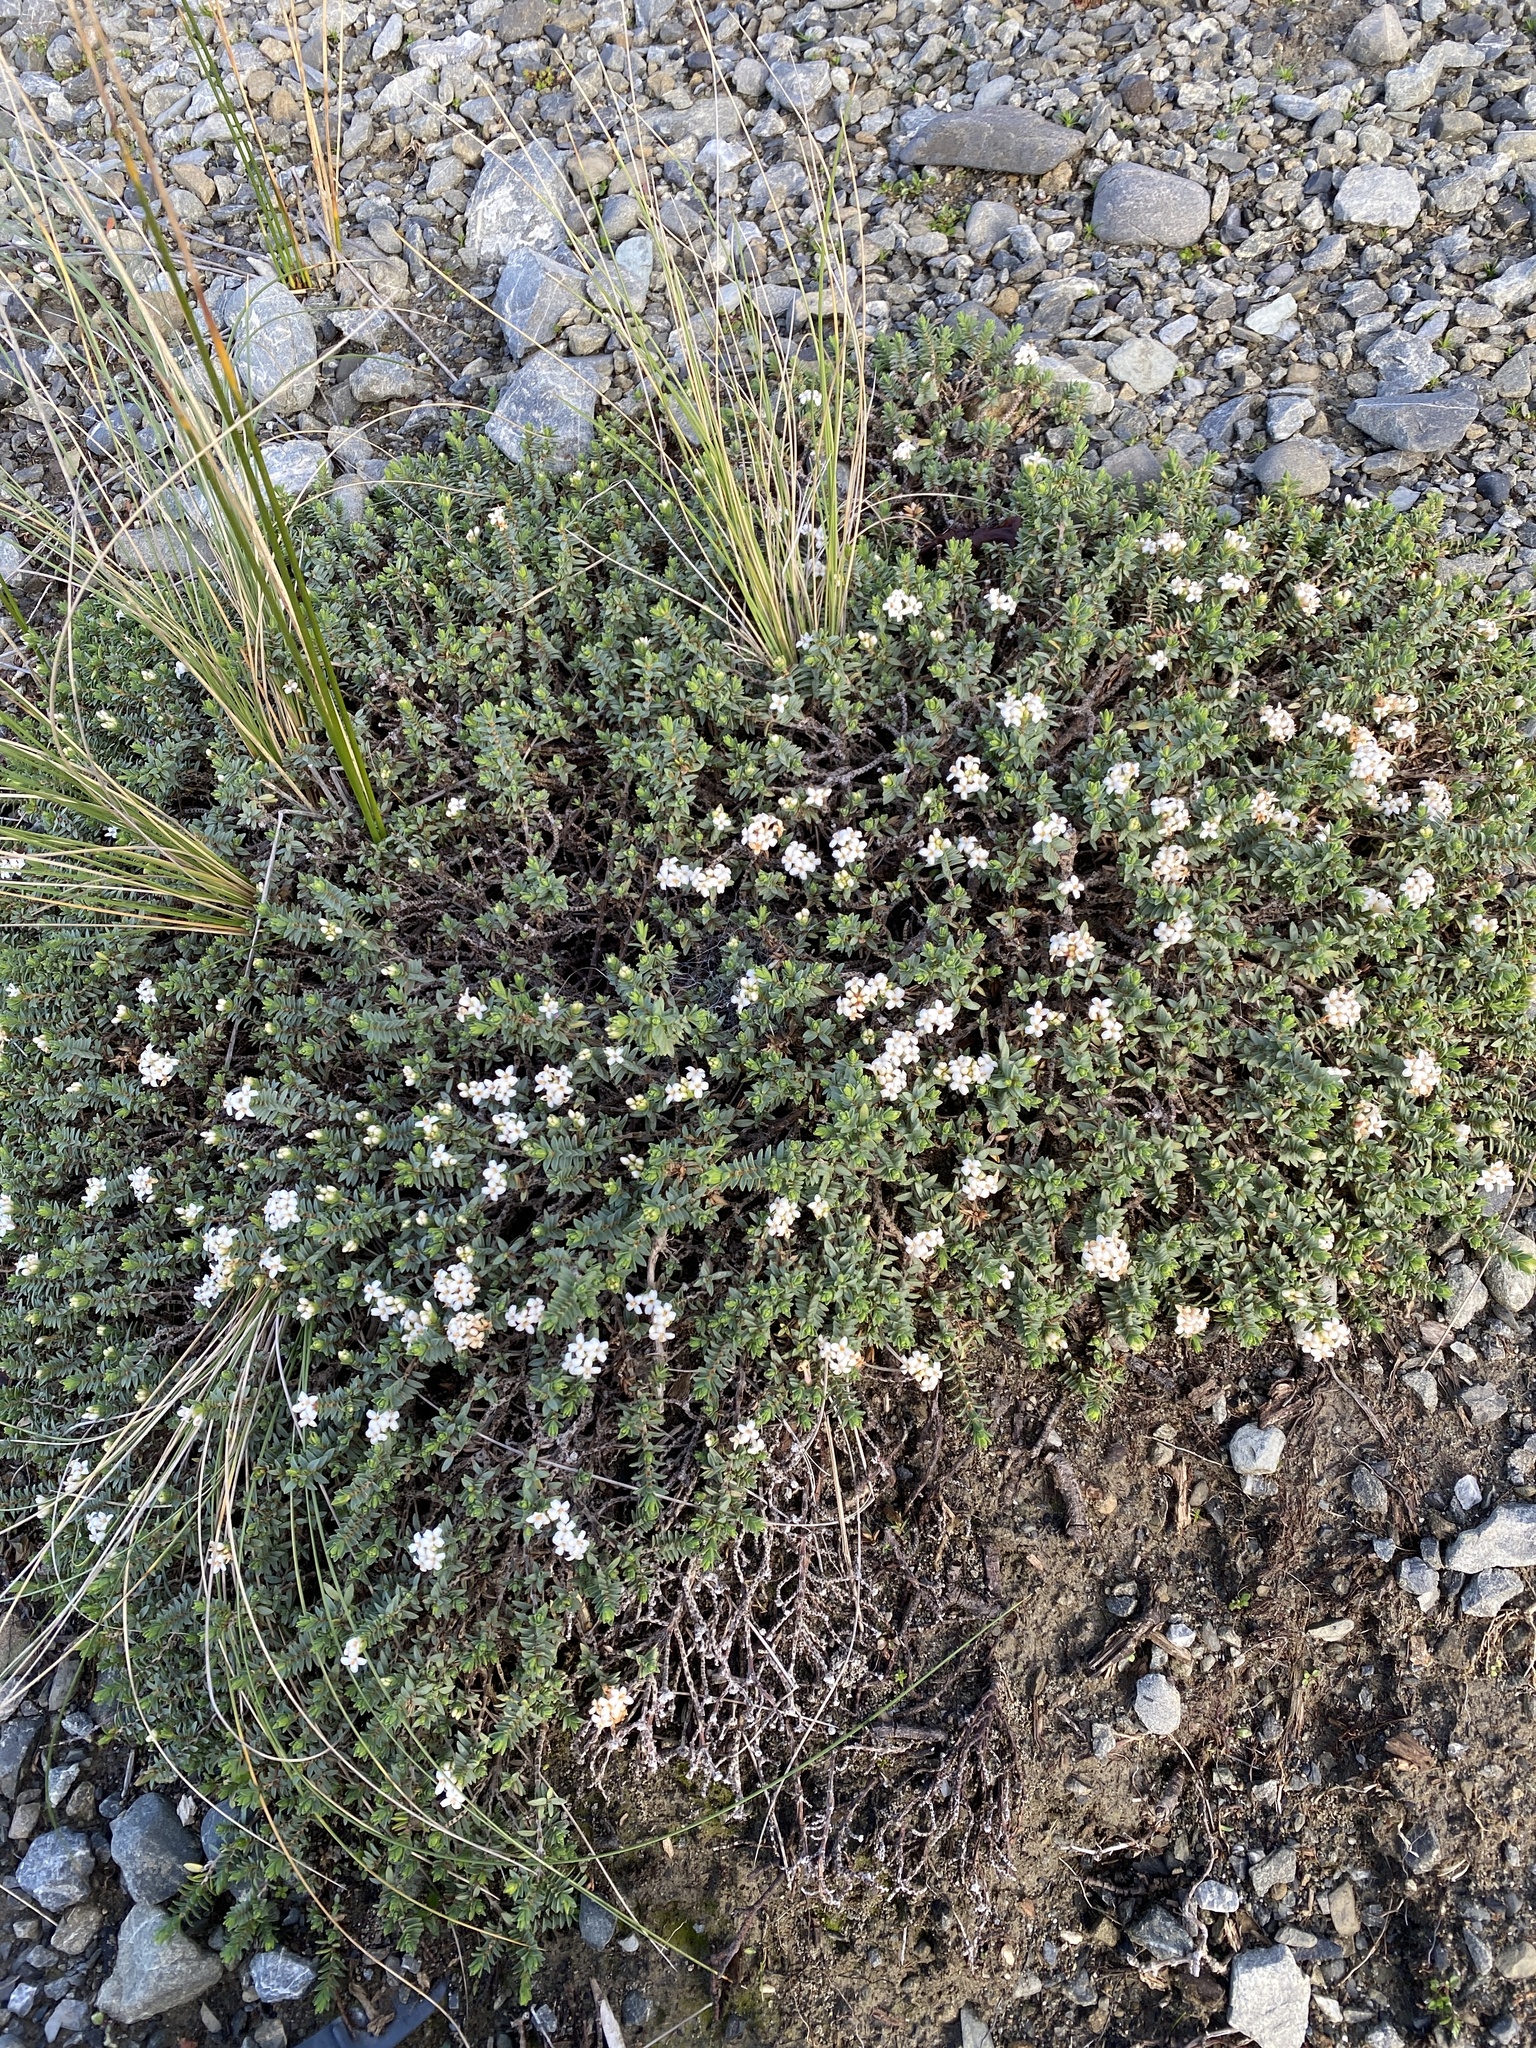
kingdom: Plantae
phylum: Tracheophyta
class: Magnoliopsida
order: Malvales
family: Thymelaeaceae
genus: Pimelea
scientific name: Pimelea prostrata
